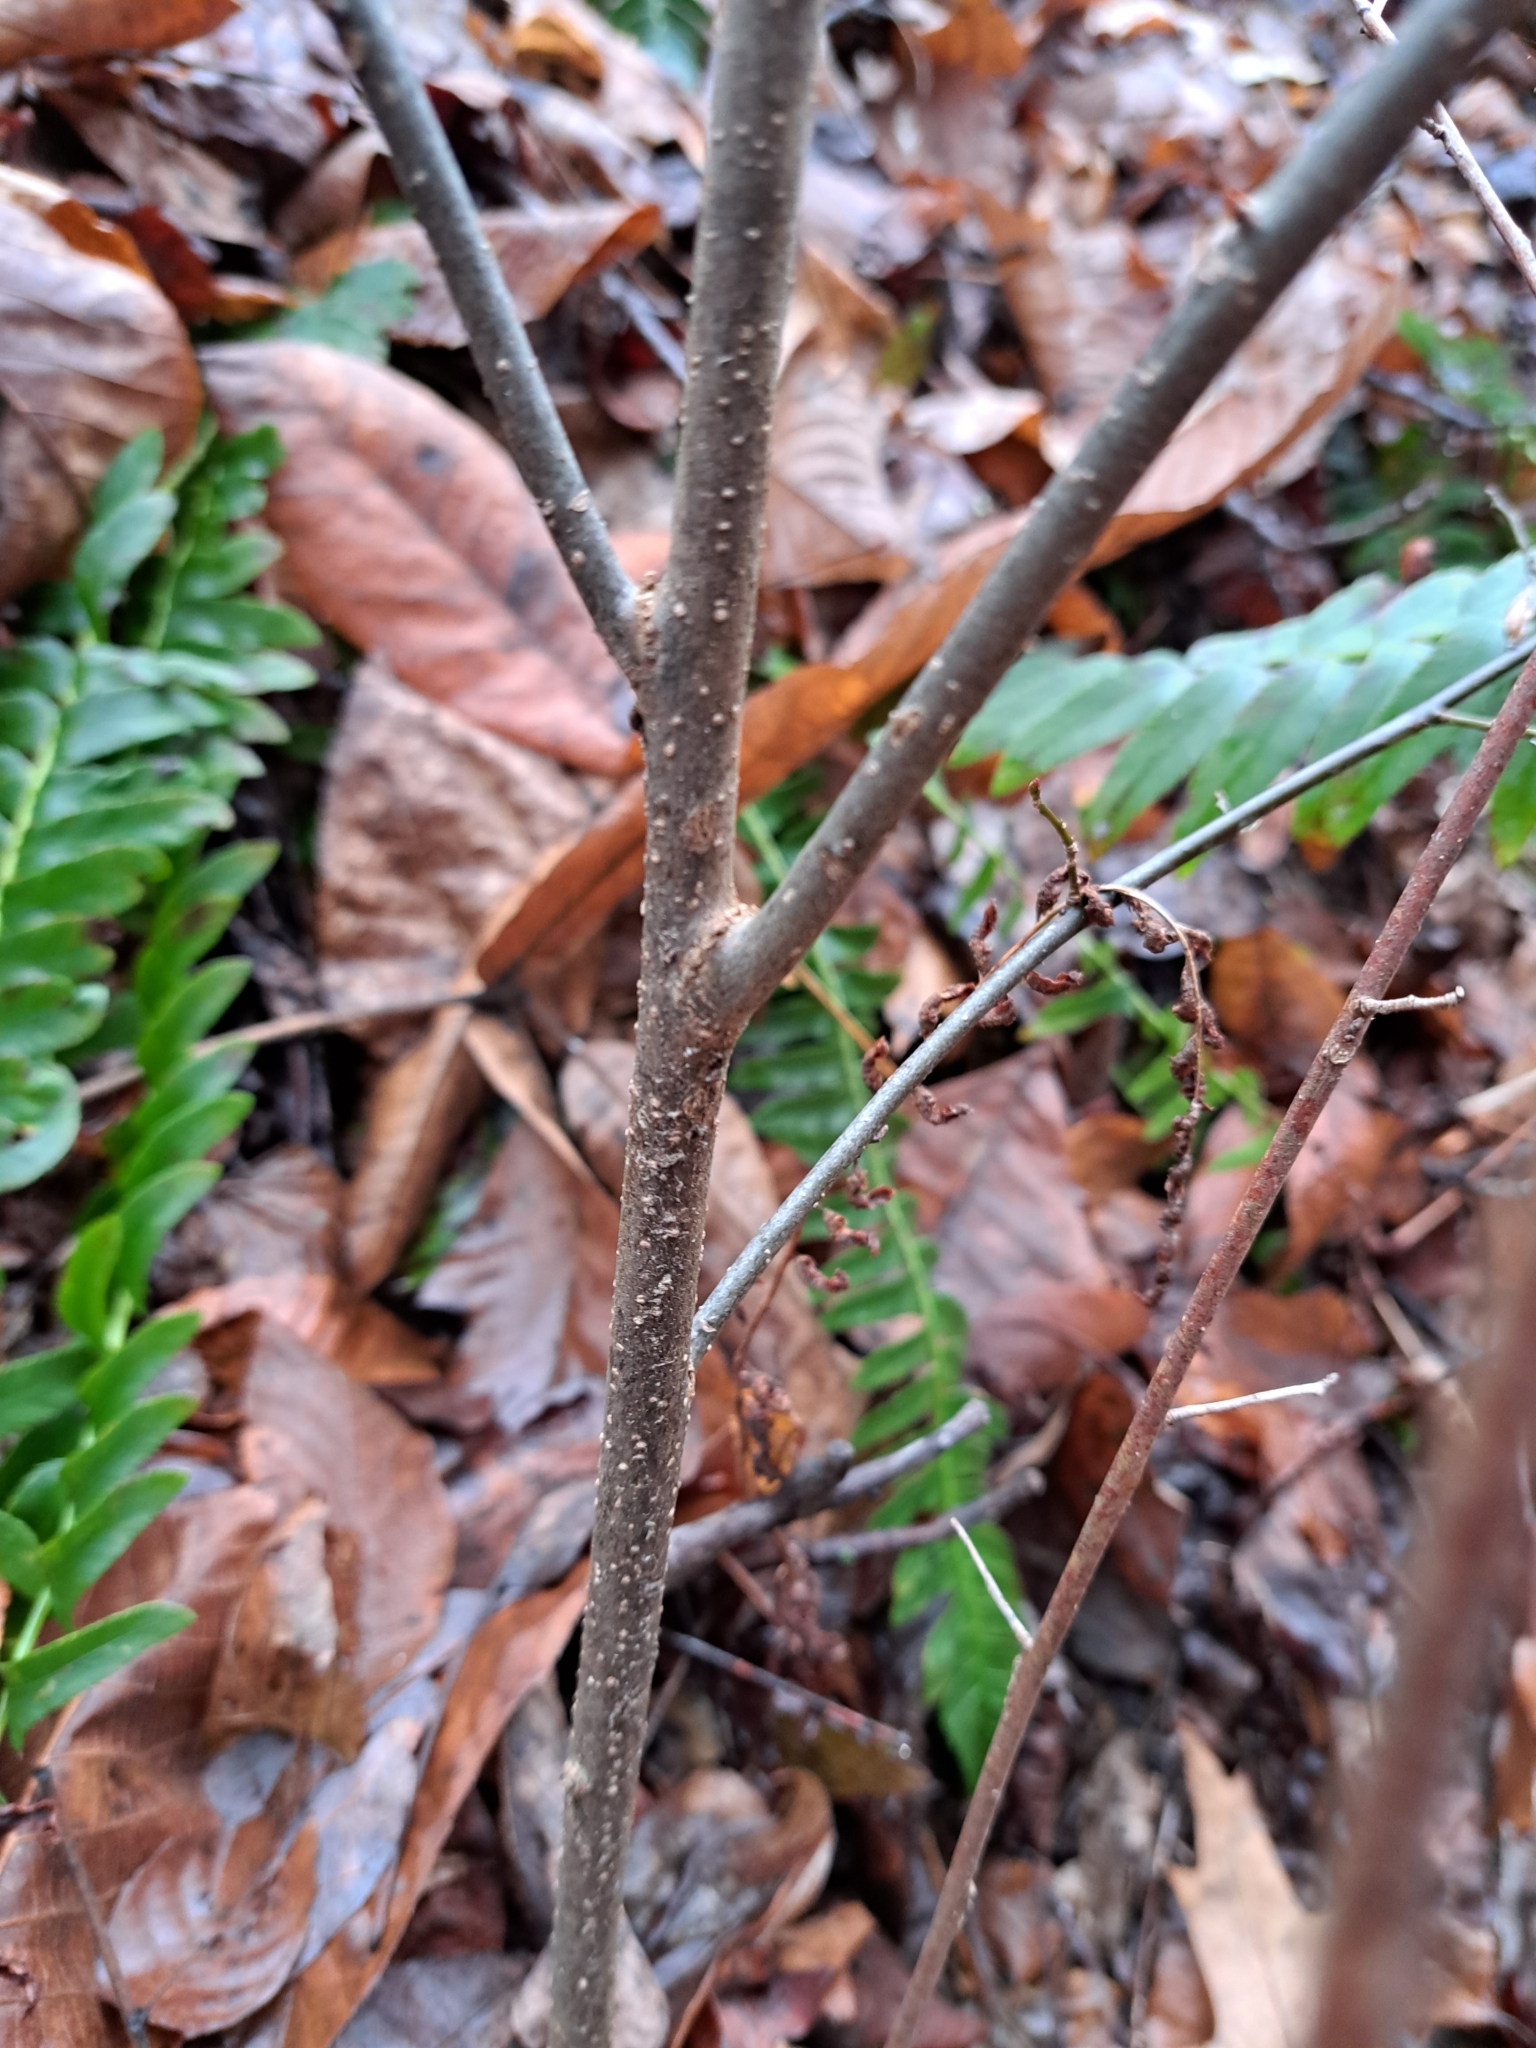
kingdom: Plantae
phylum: Tracheophyta
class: Magnoliopsida
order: Laurales
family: Lauraceae
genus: Lindera
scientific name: Lindera benzoin
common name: Spicebush
